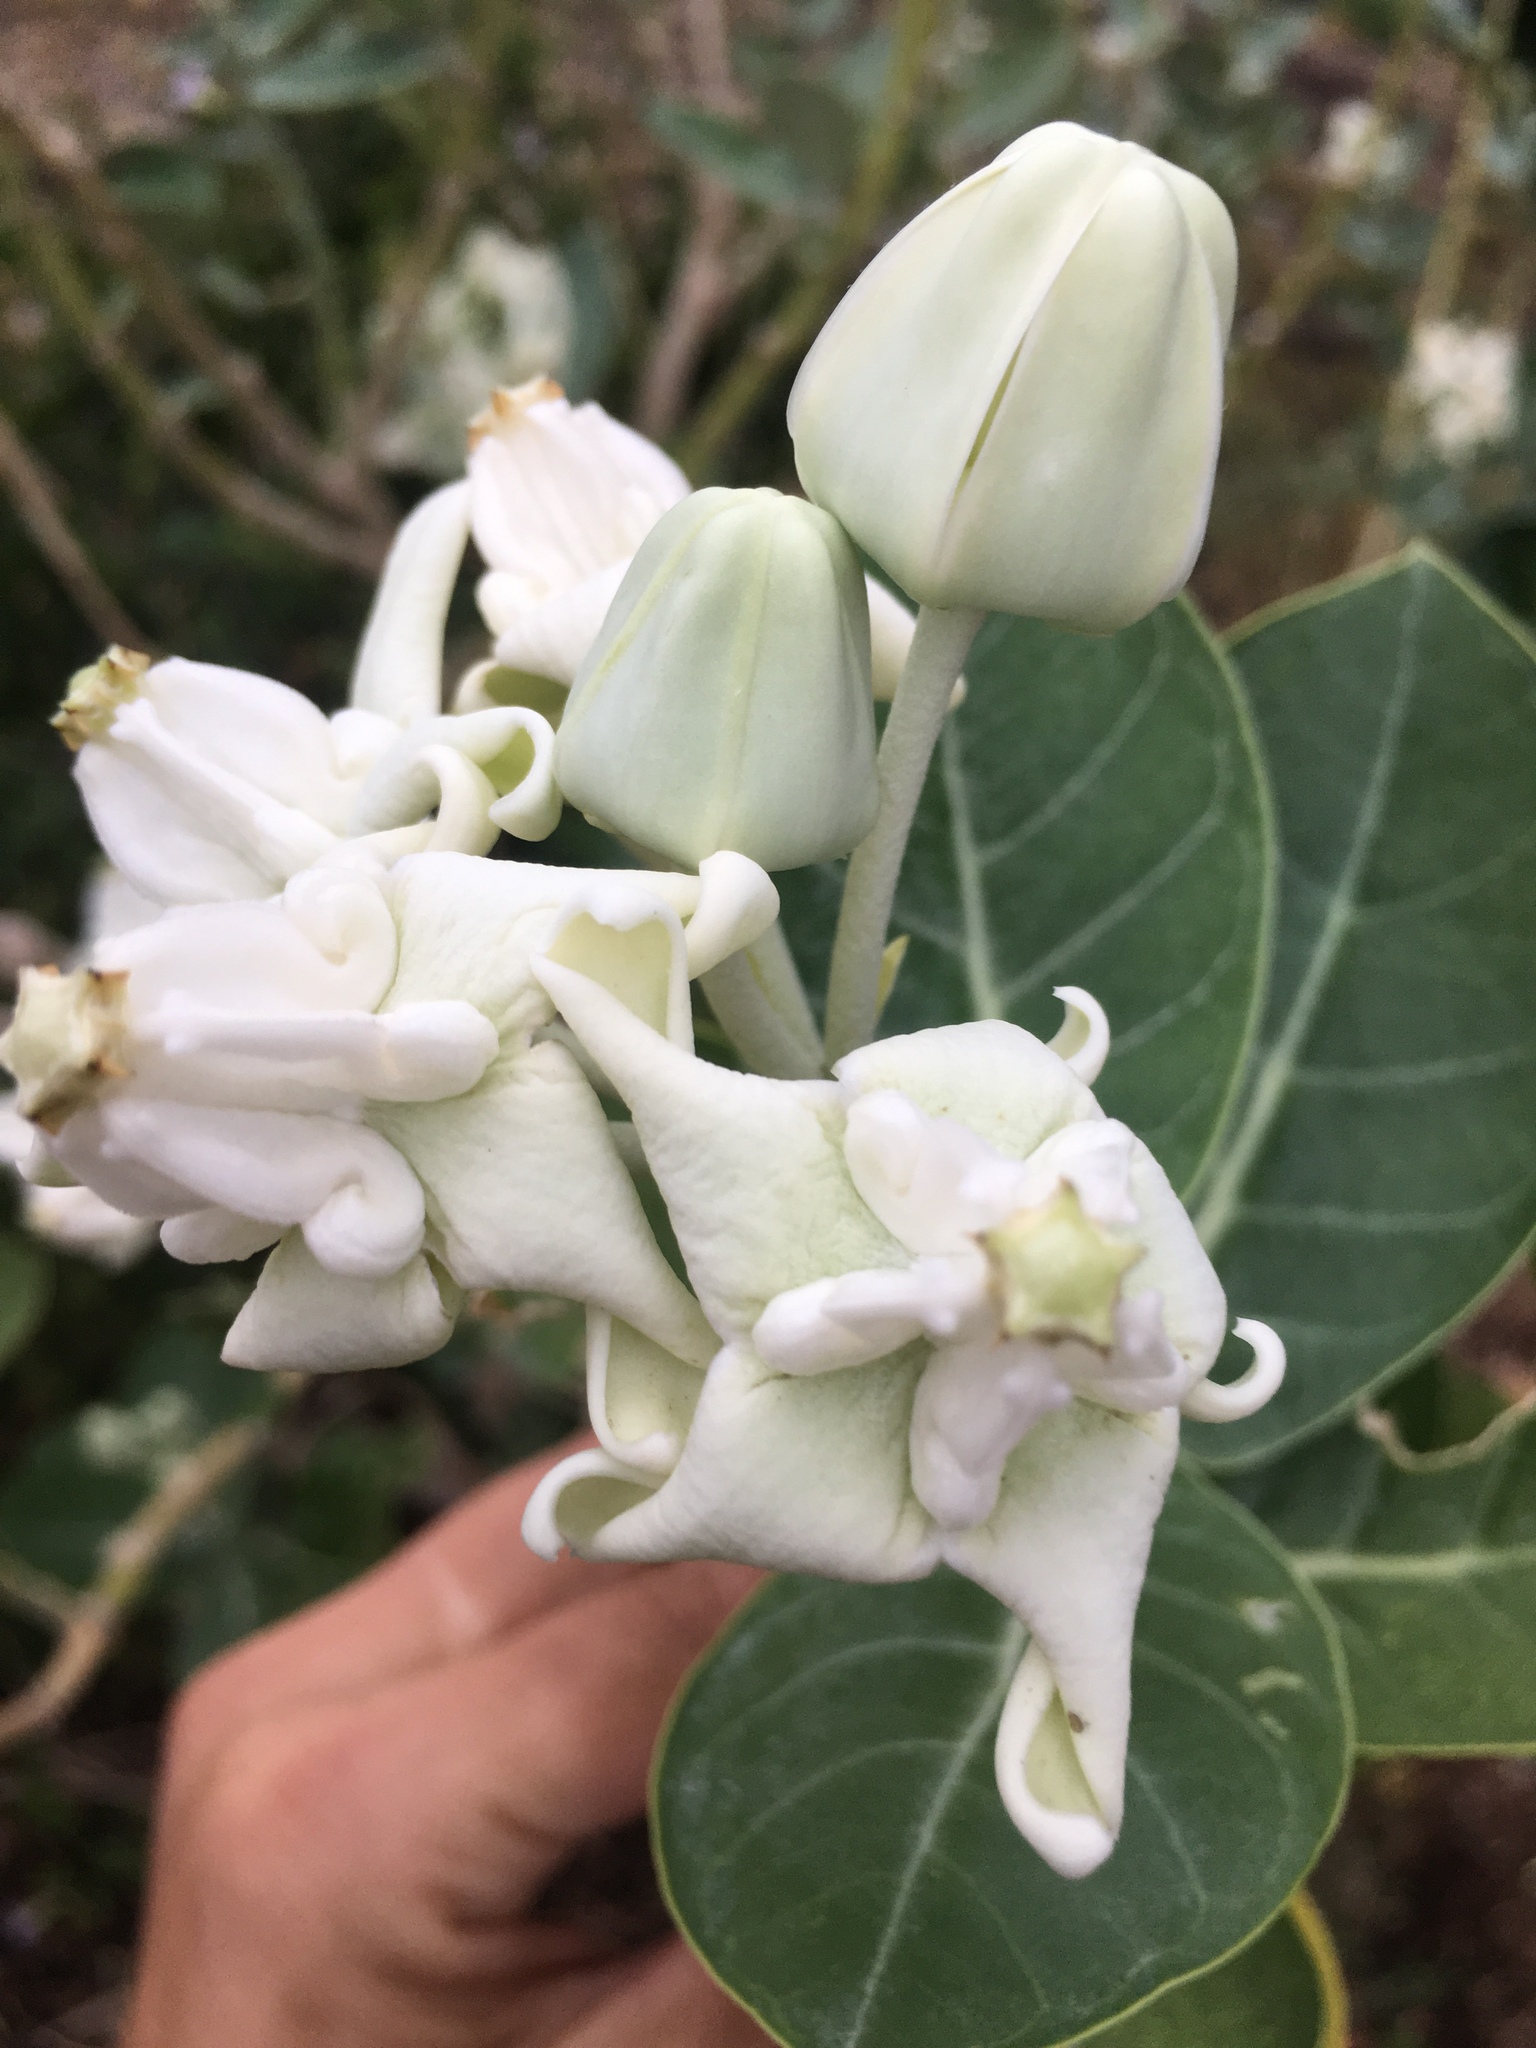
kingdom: Plantae
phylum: Tracheophyta
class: Magnoliopsida
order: Gentianales
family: Apocynaceae
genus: Calotropis
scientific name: Calotropis gigantea
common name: Crown flower
